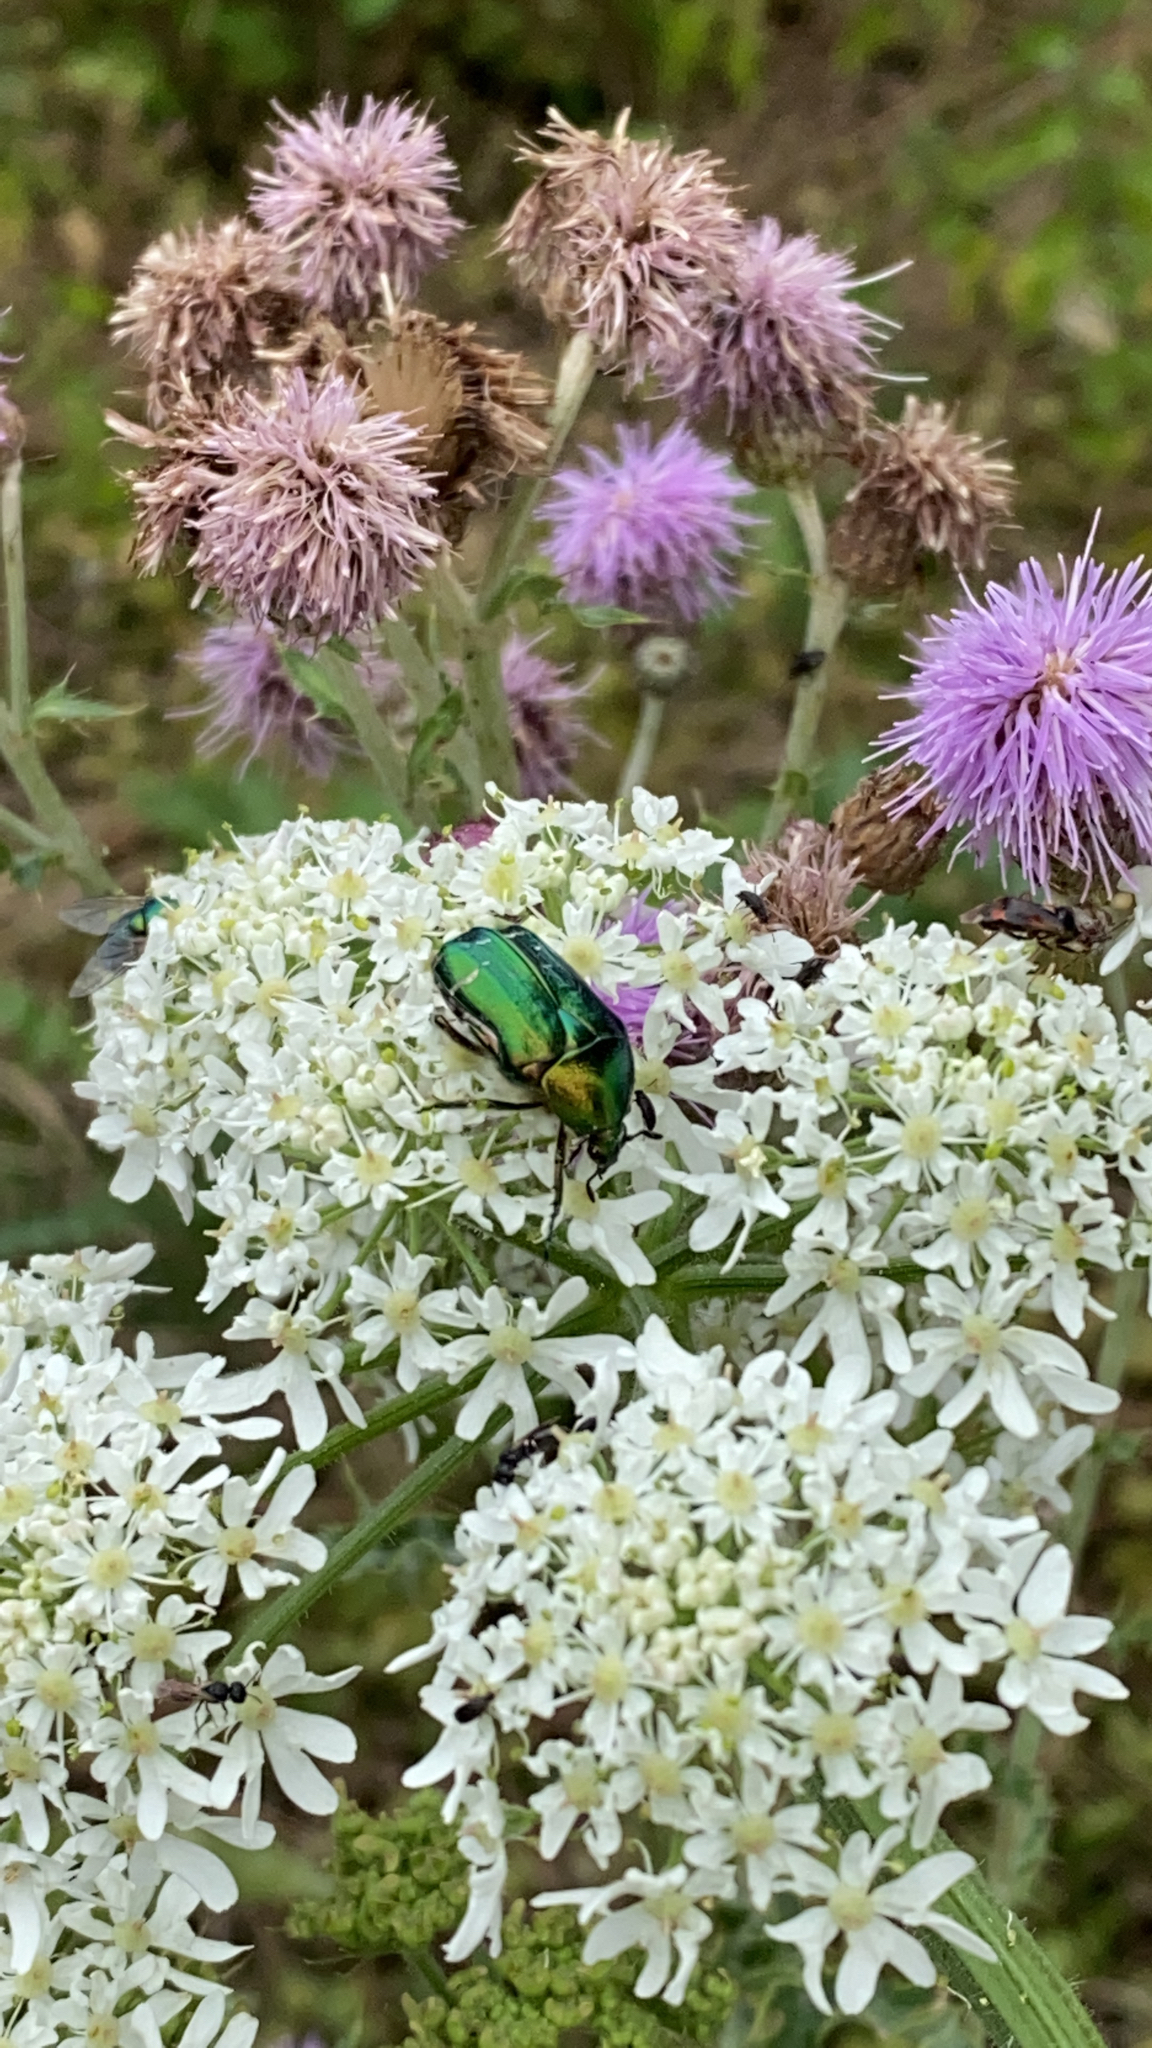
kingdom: Animalia
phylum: Arthropoda
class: Insecta
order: Coleoptera
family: Scarabaeidae
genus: Cetonia
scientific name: Cetonia aurata
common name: Rose chafer
